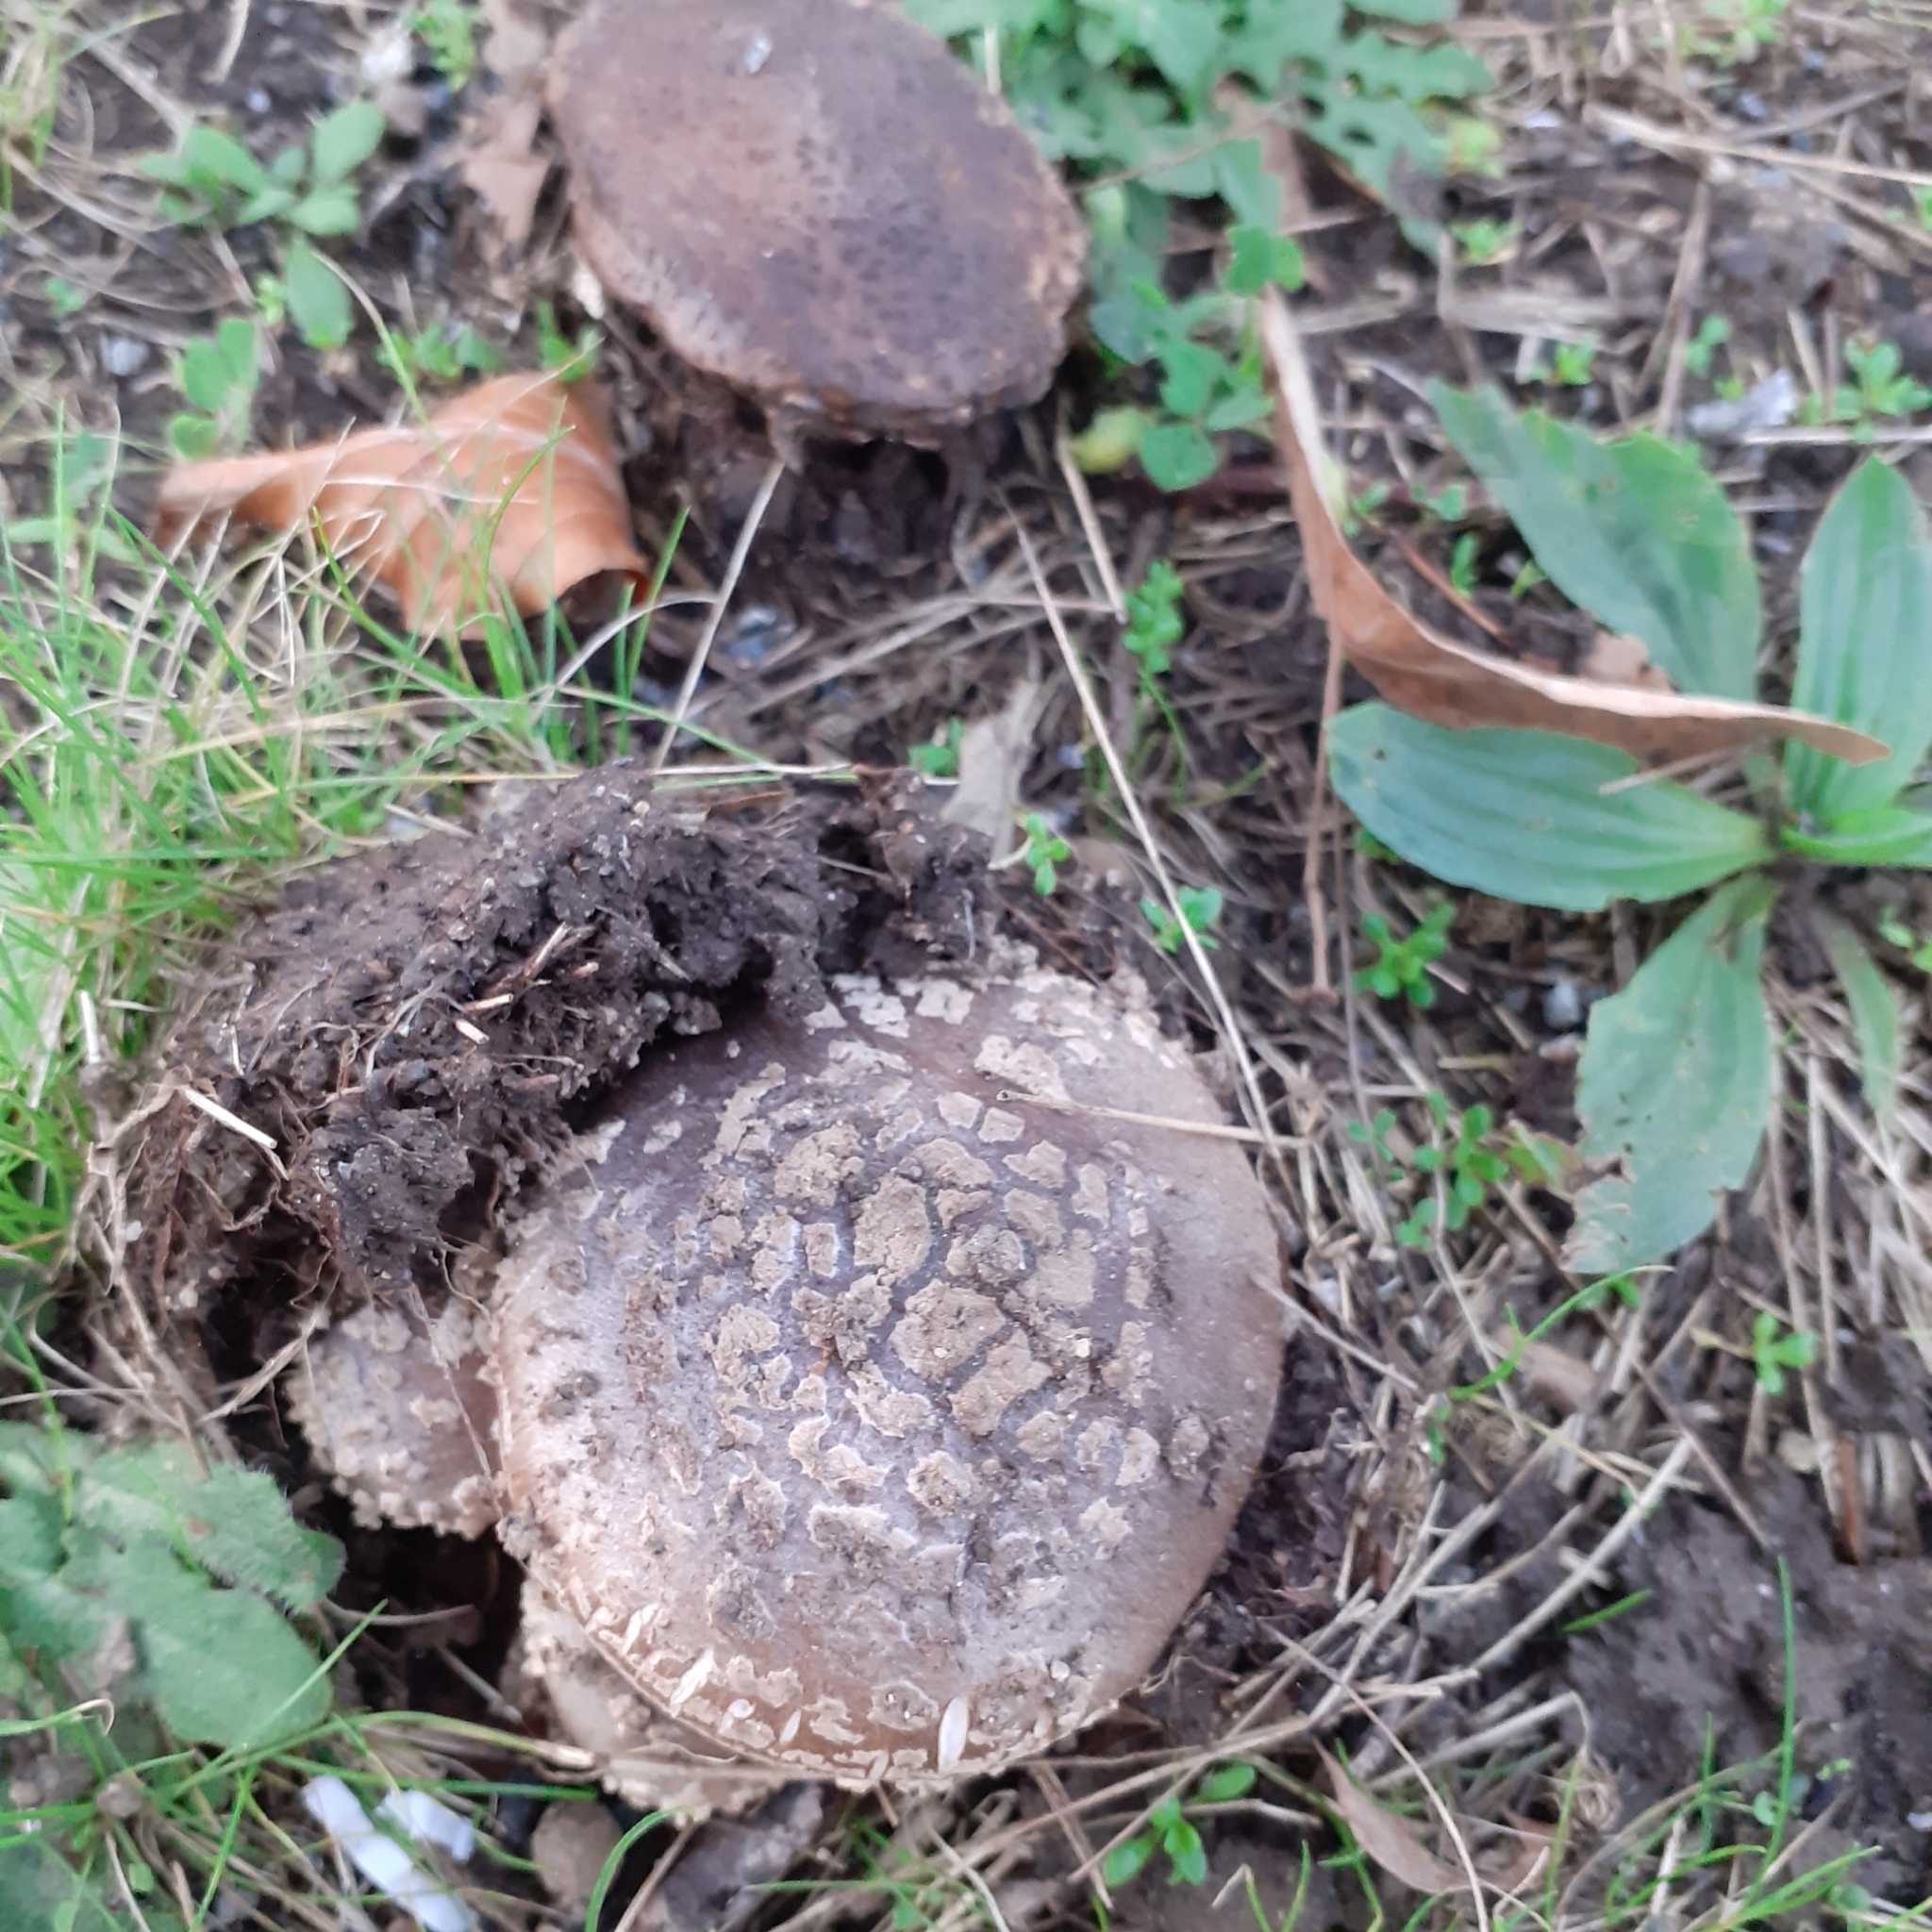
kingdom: Fungi
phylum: Basidiomycota
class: Agaricomycetes
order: Agaricales
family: Amanitaceae
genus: Amanita
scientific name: Amanita excelsa
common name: European false blusher
